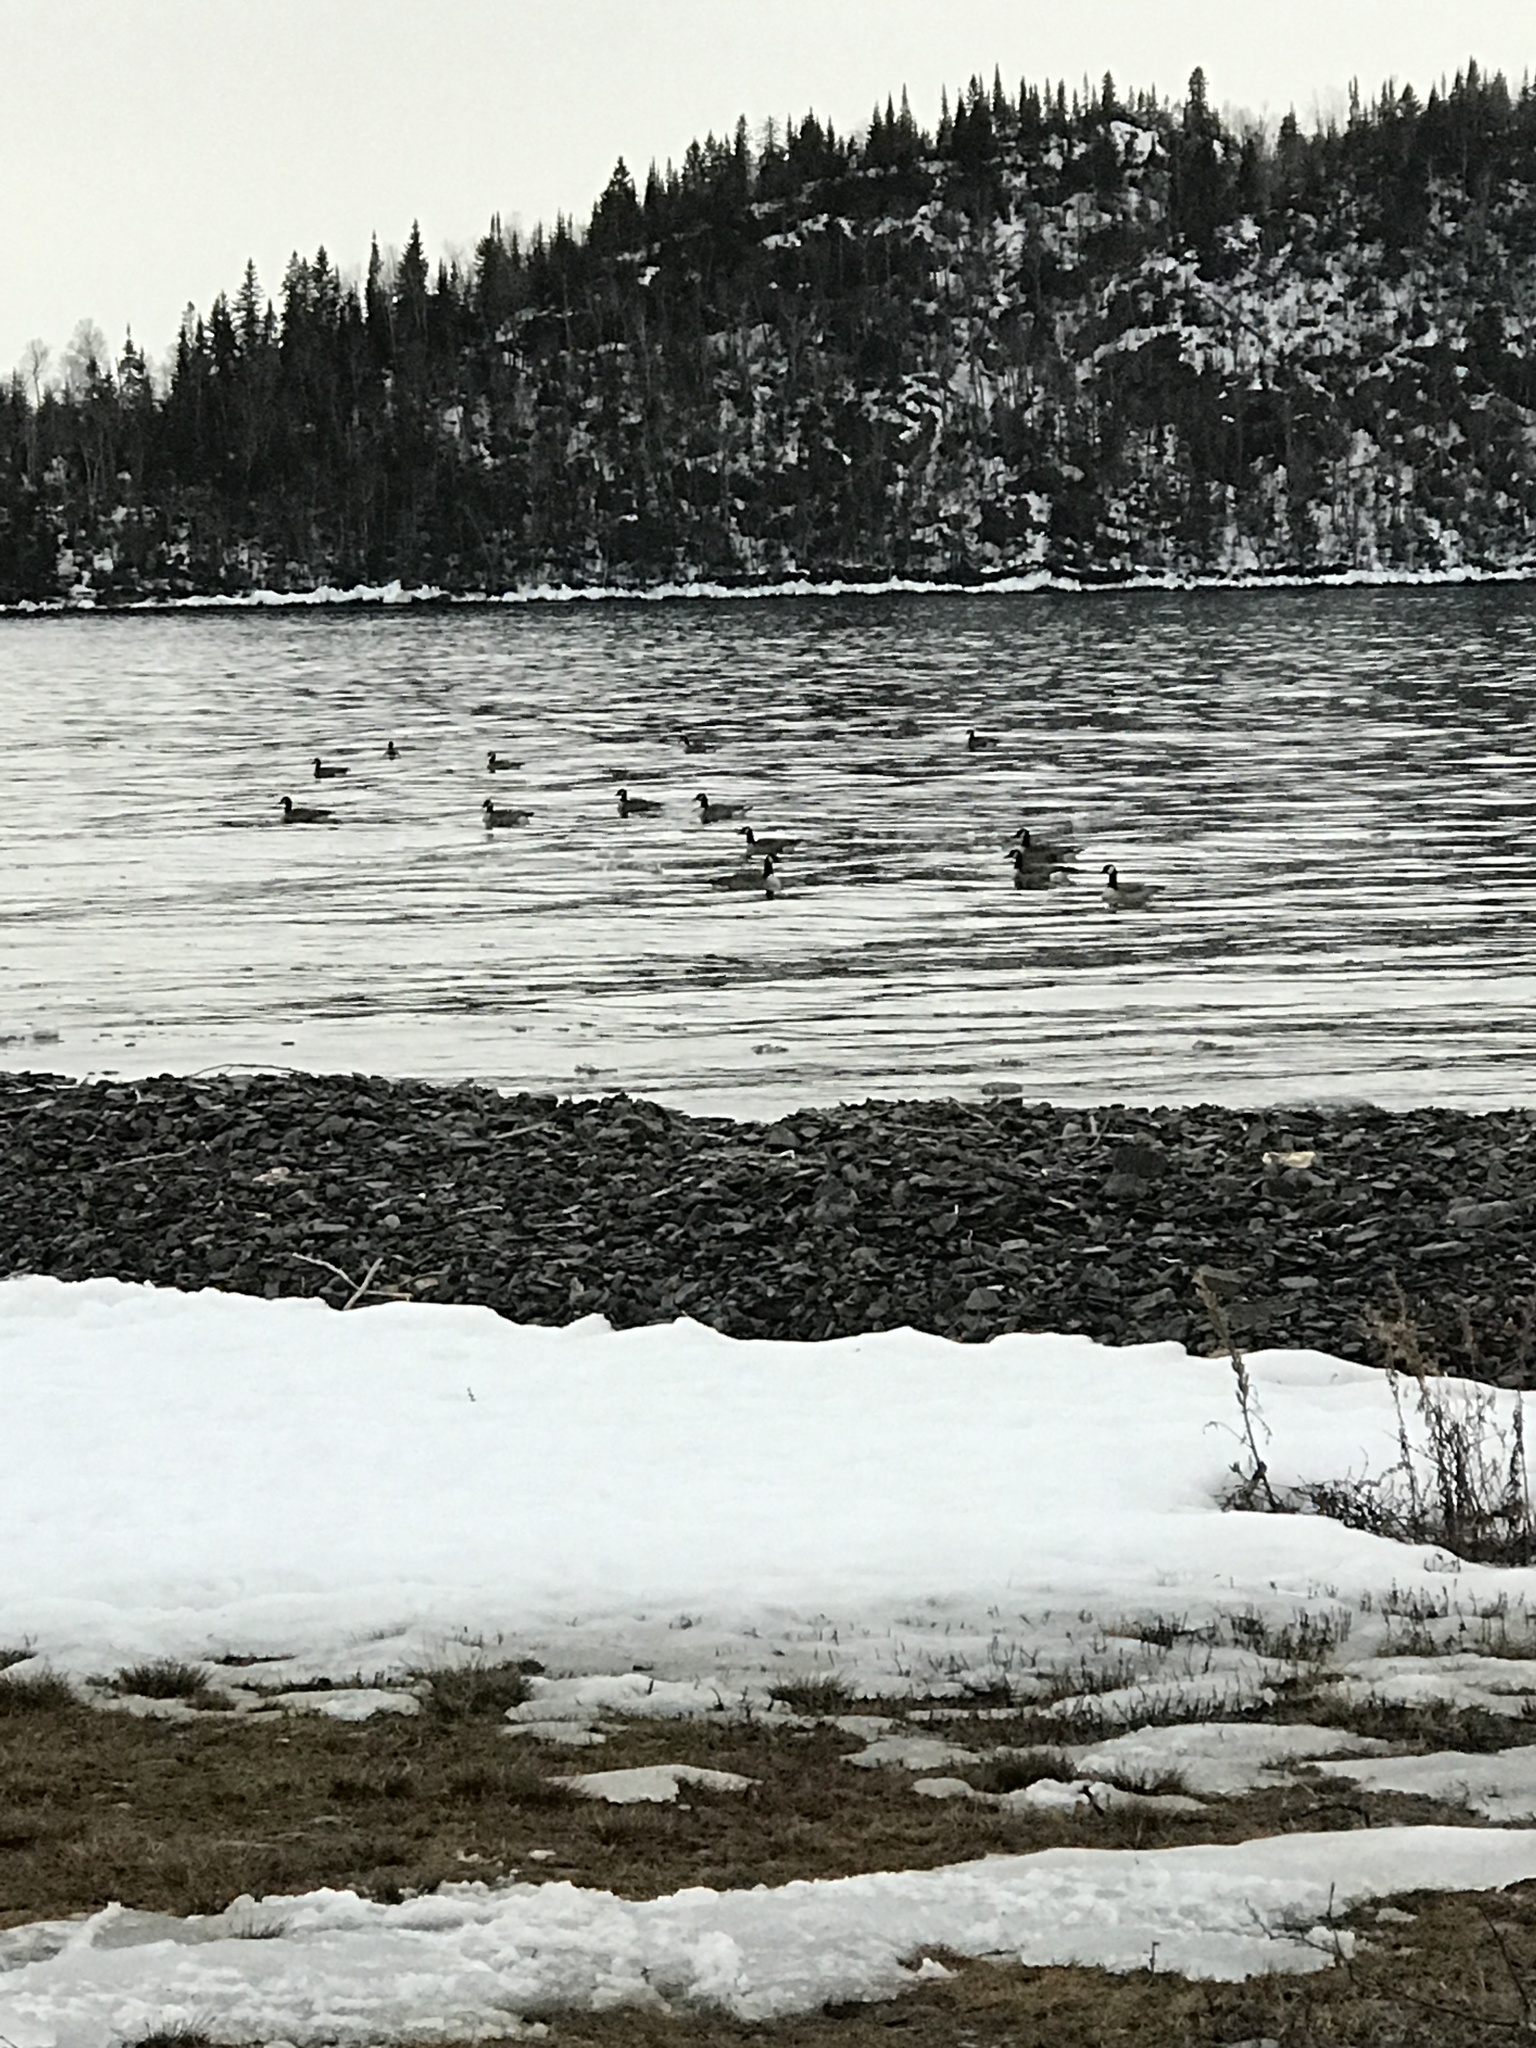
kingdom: Animalia
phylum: Chordata
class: Aves
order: Anseriformes
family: Anatidae
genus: Branta
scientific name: Branta canadensis
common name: Canada goose
